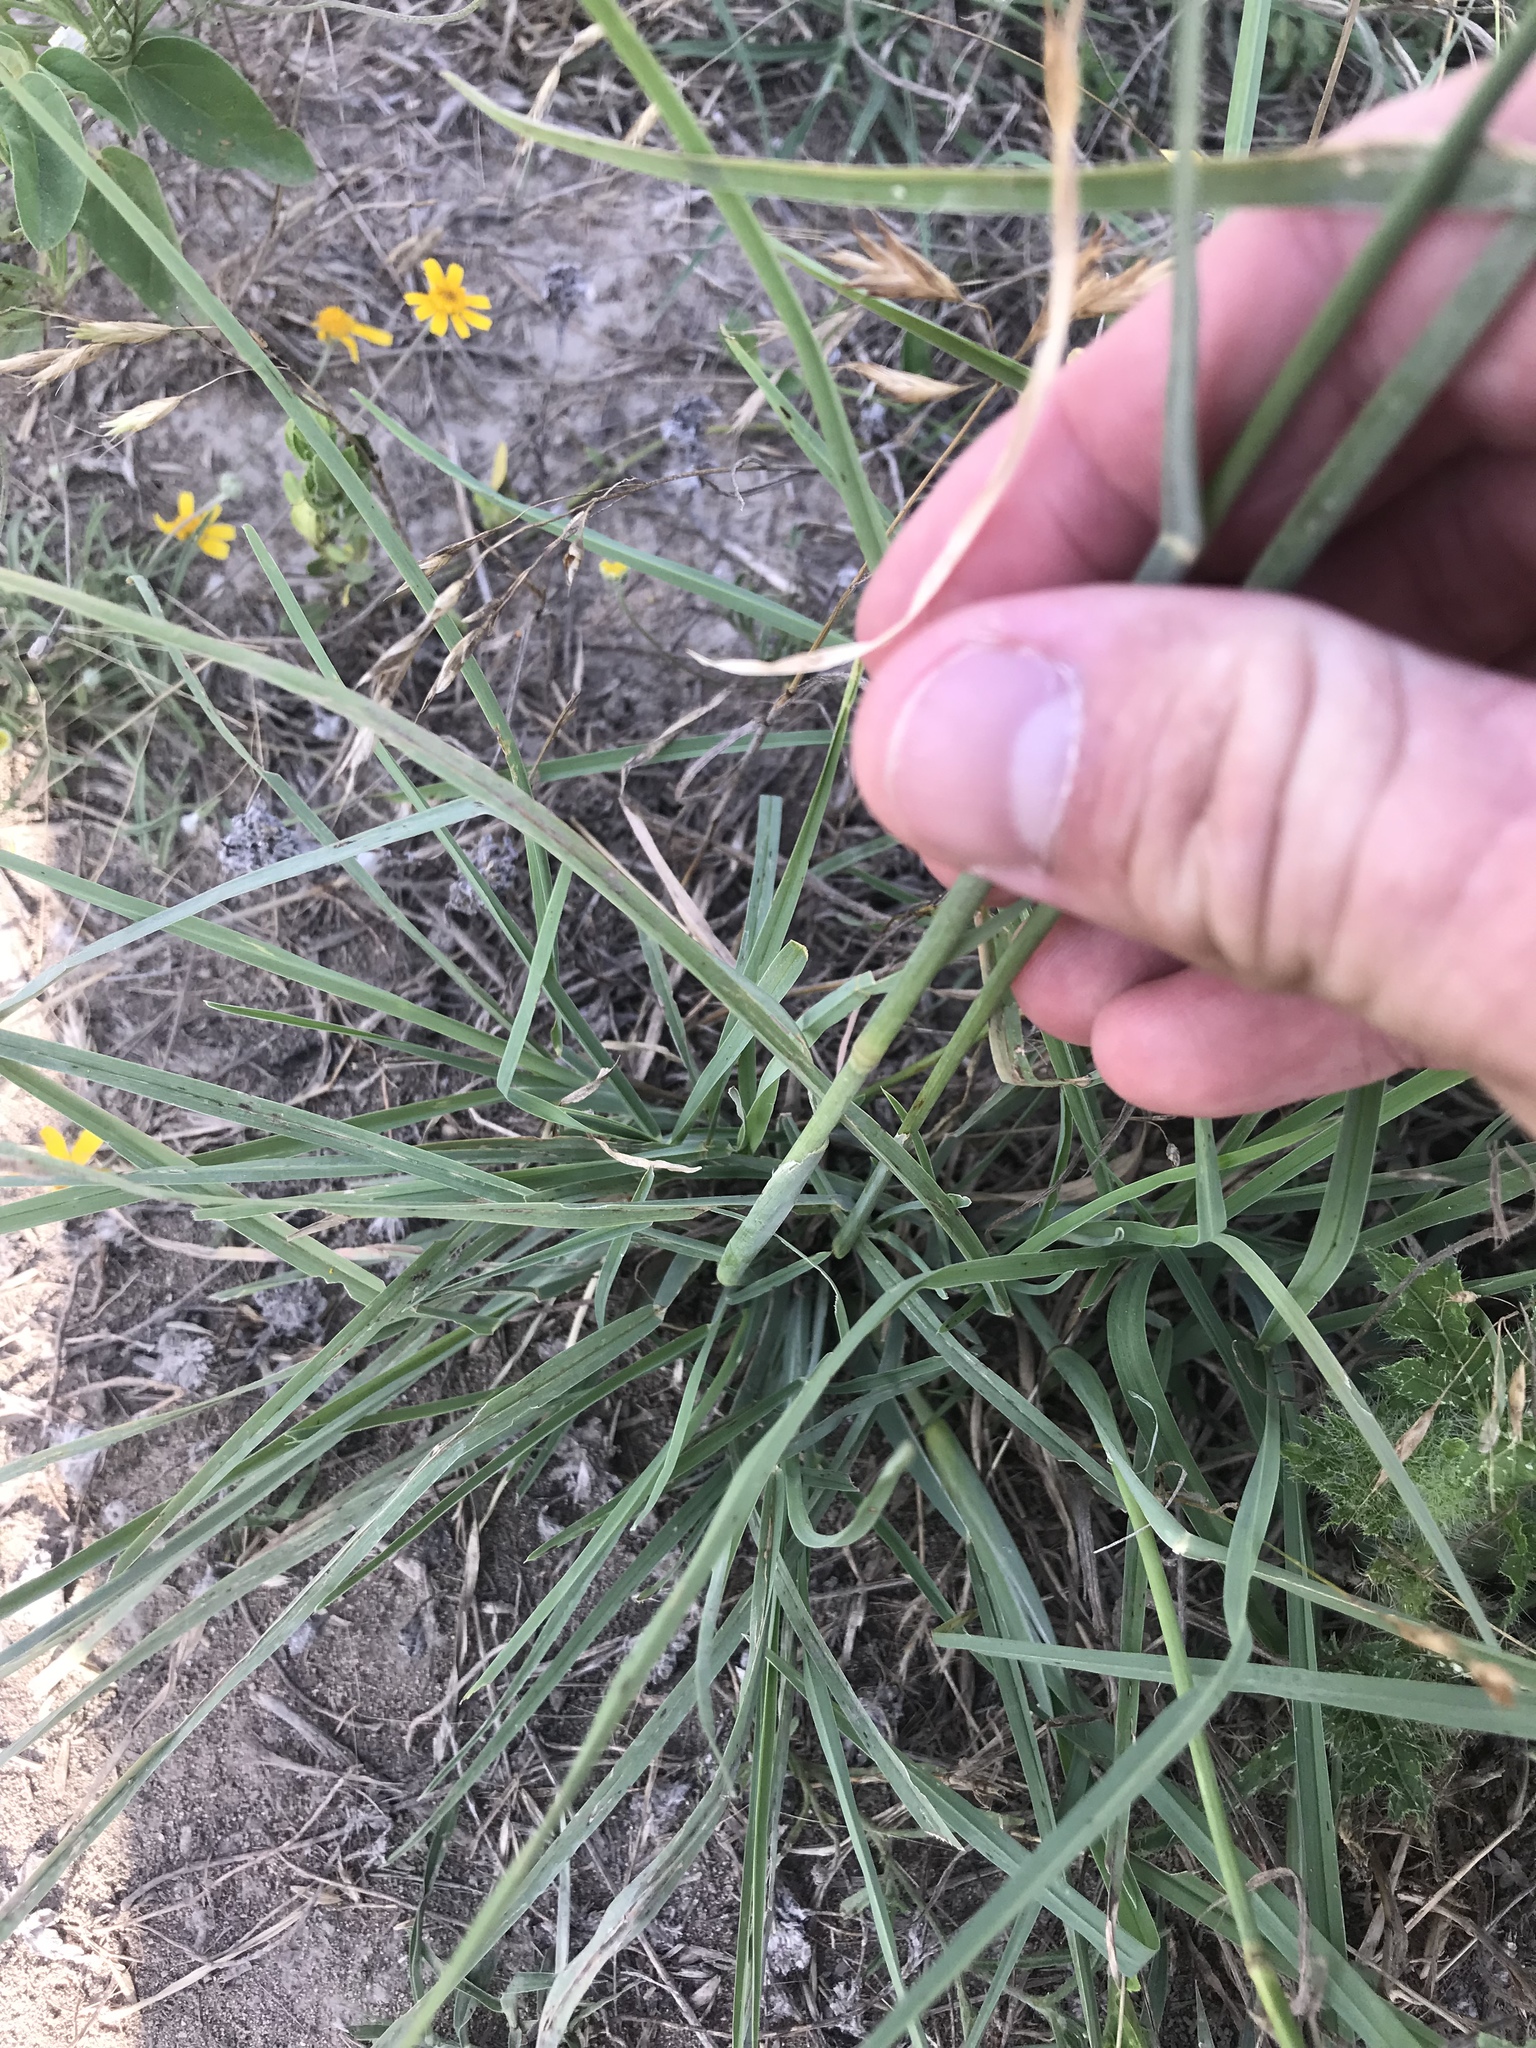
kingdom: Plantae
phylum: Tracheophyta
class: Liliopsida
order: Poales
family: Poaceae
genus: Chloris
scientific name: Chloris subdolichostachya
